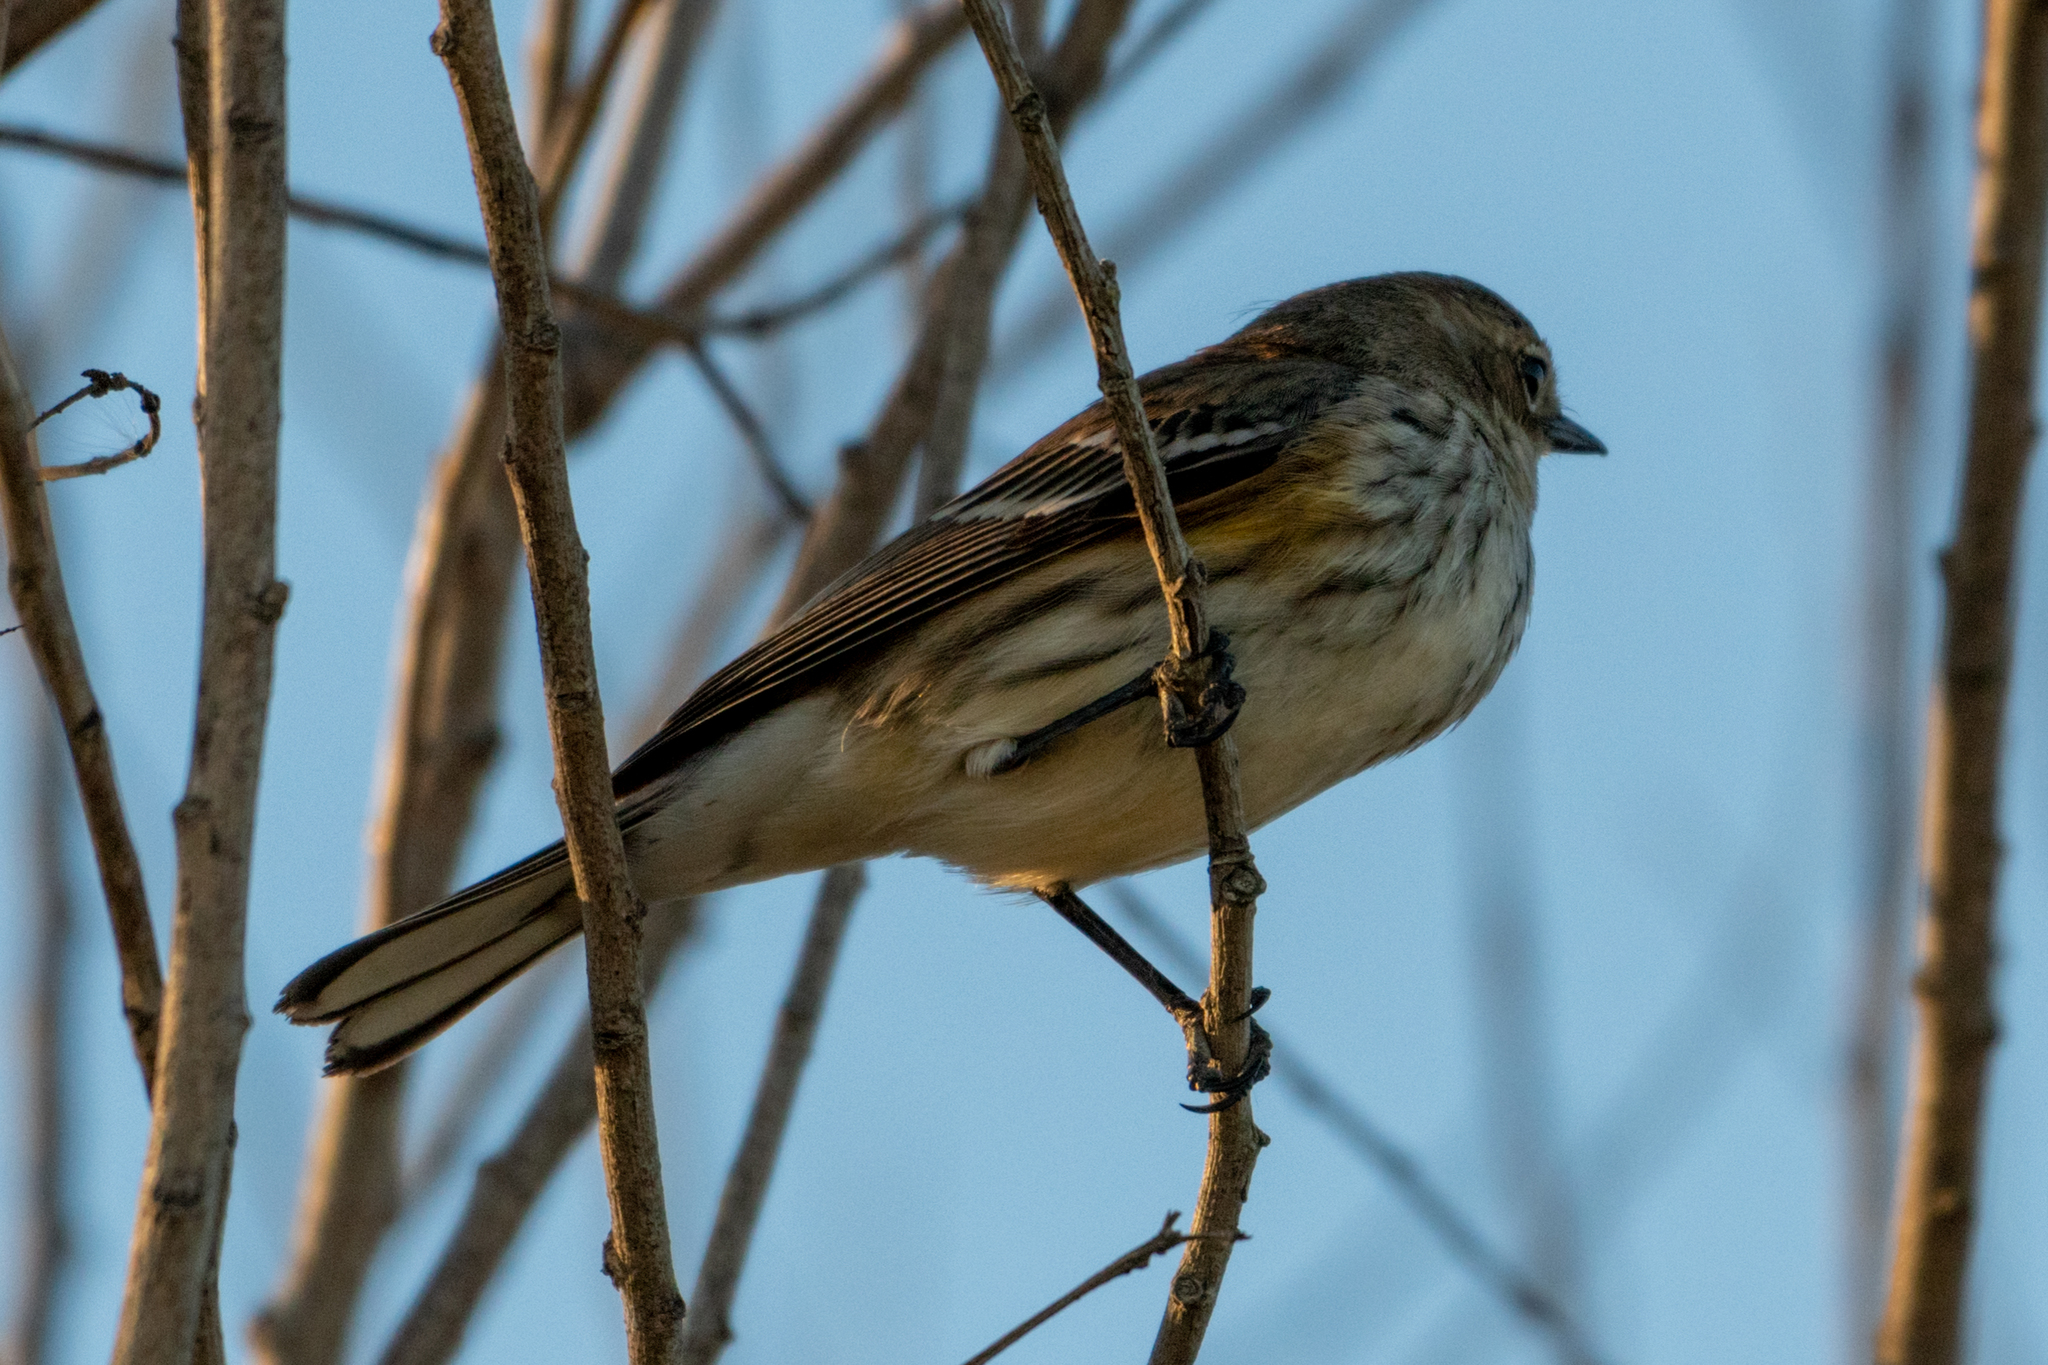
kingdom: Animalia
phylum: Chordata
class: Aves
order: Passeriformes
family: Parulidae
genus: Setophaga
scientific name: Setophaga coronata
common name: Myrtle warbler
